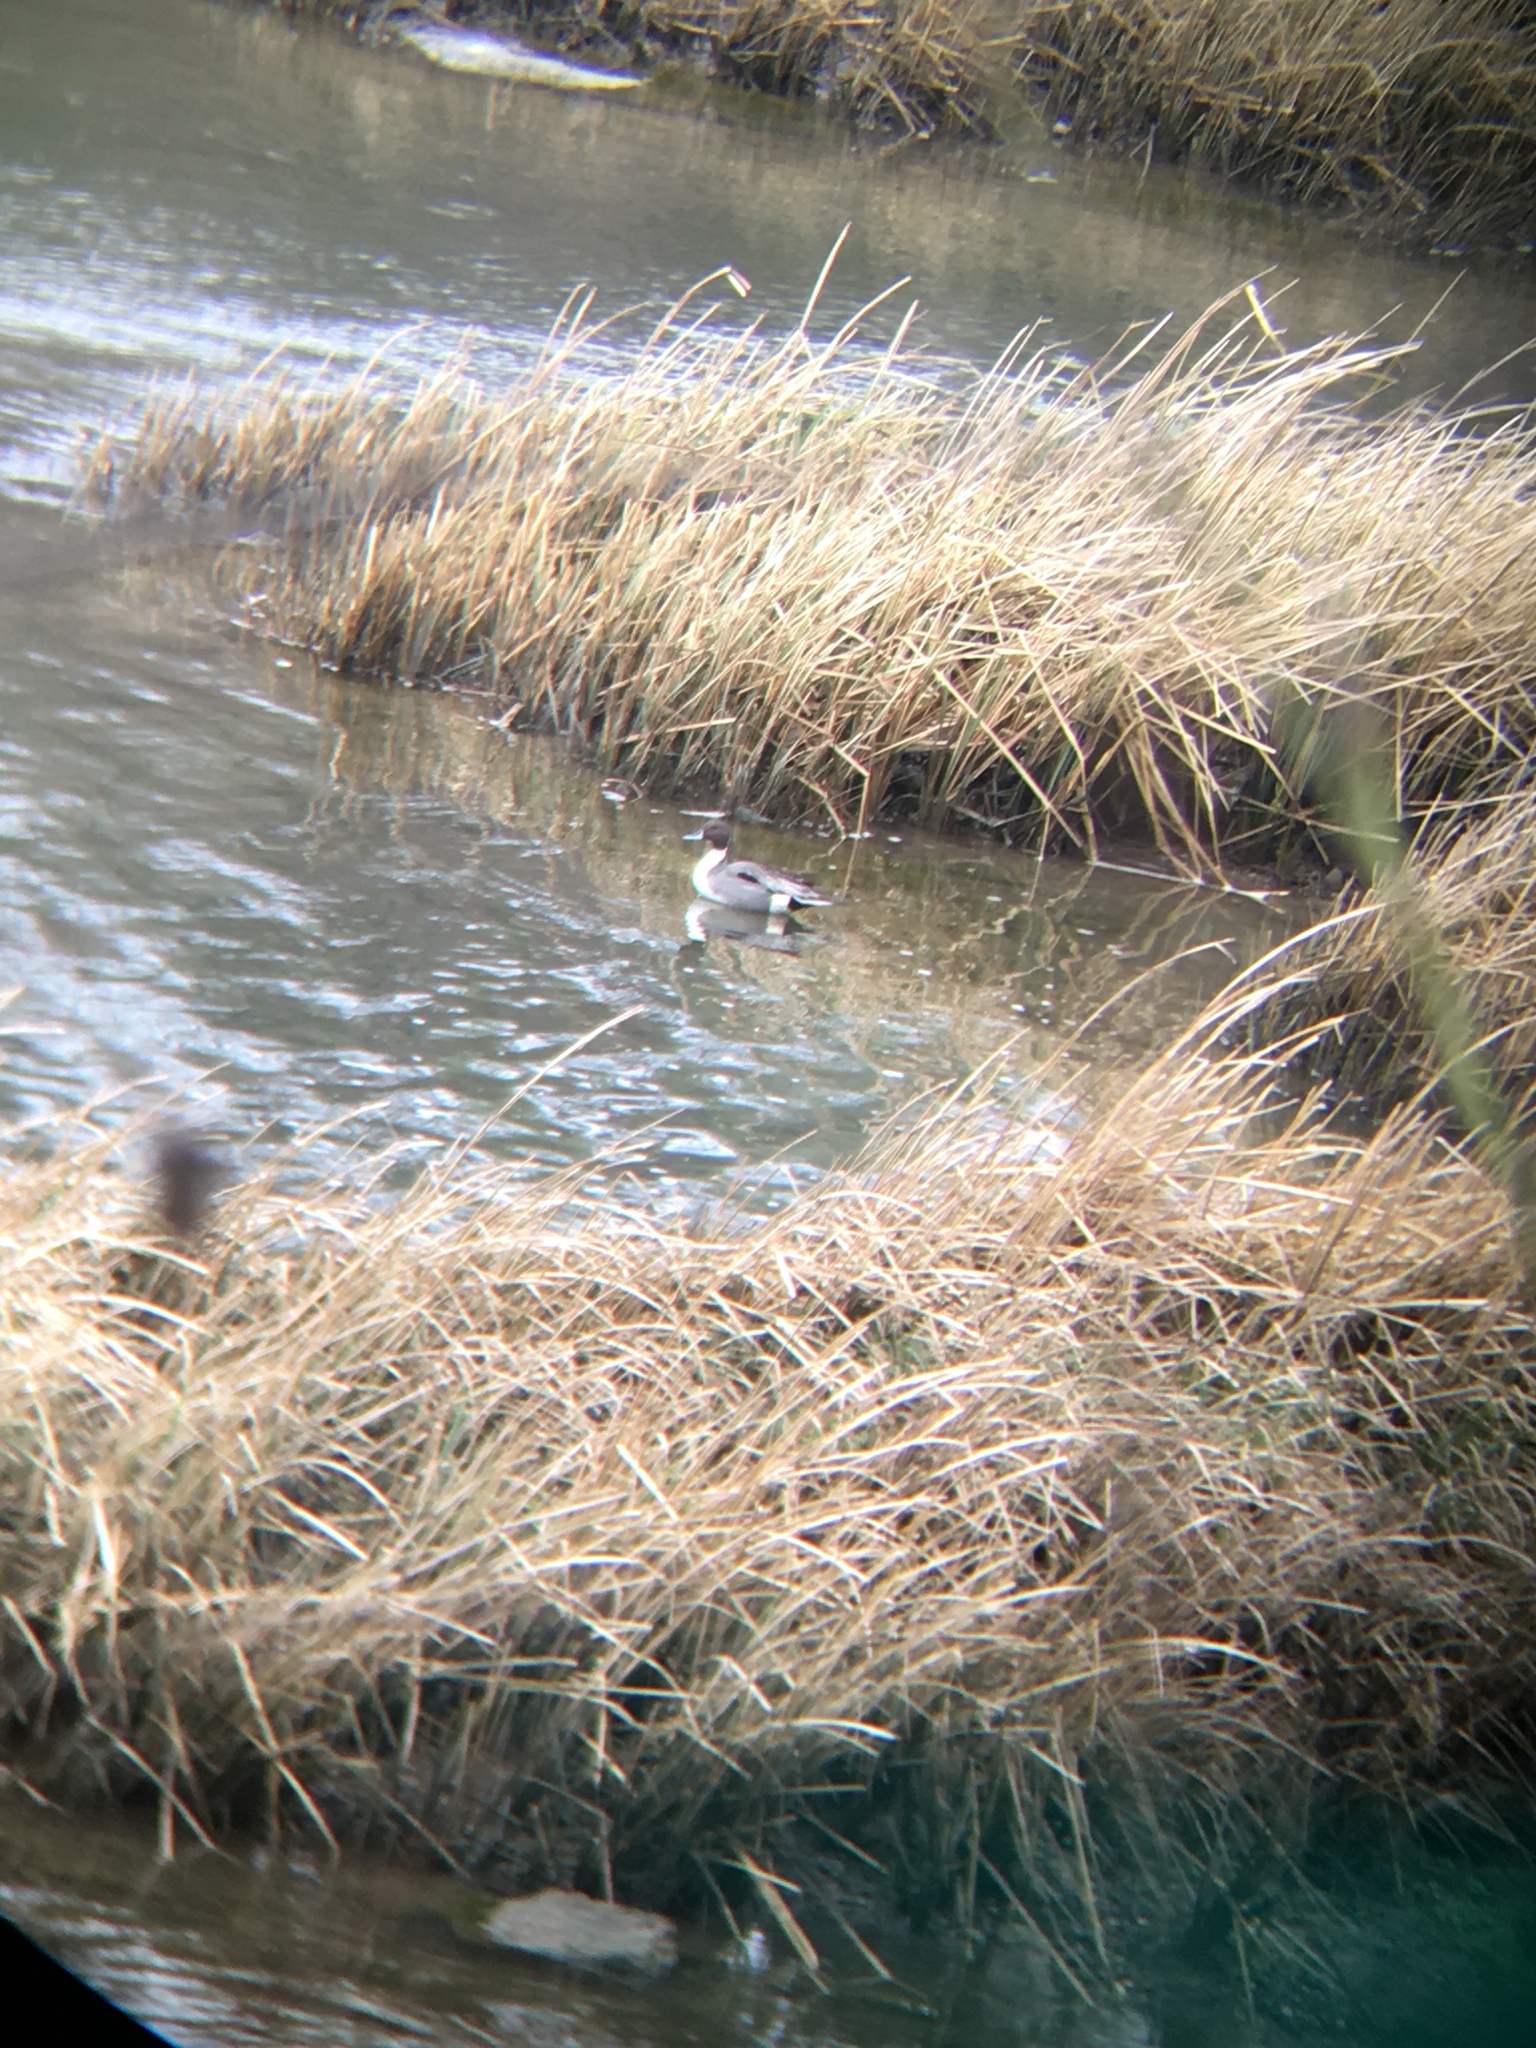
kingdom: Animalia
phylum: Chordata
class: Aves
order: Anseriformes
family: Anatidae
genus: Anas
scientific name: Anas acuta
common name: Northern pintail
